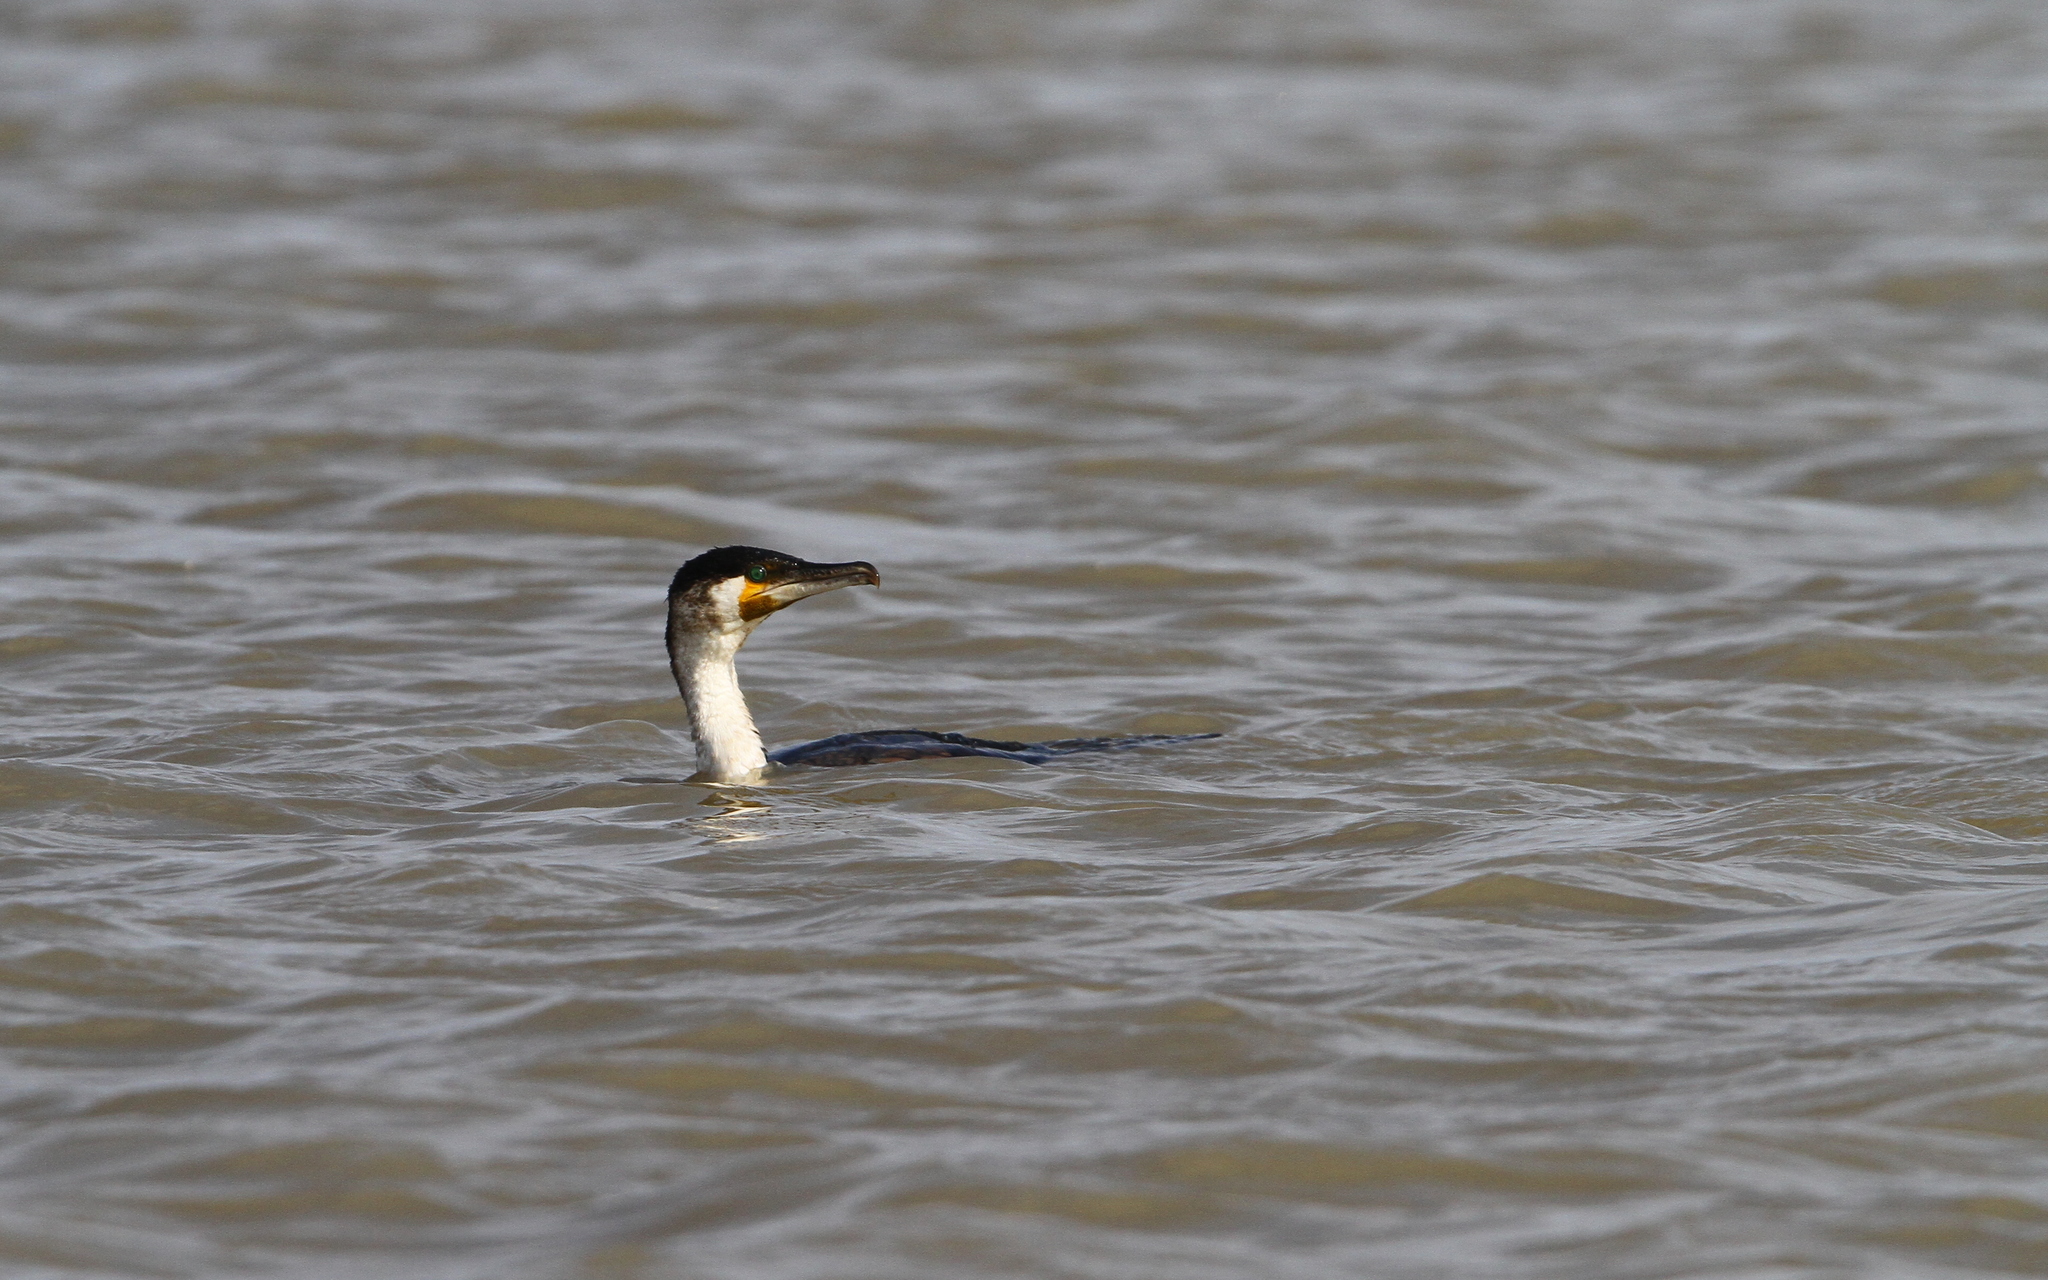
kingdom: Animalia
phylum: Chordata
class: Aves
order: Suliformes
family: Phalacrocoracidae
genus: Phalacrocorax
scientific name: Phalacrocorax carbo
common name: Great cormorant
